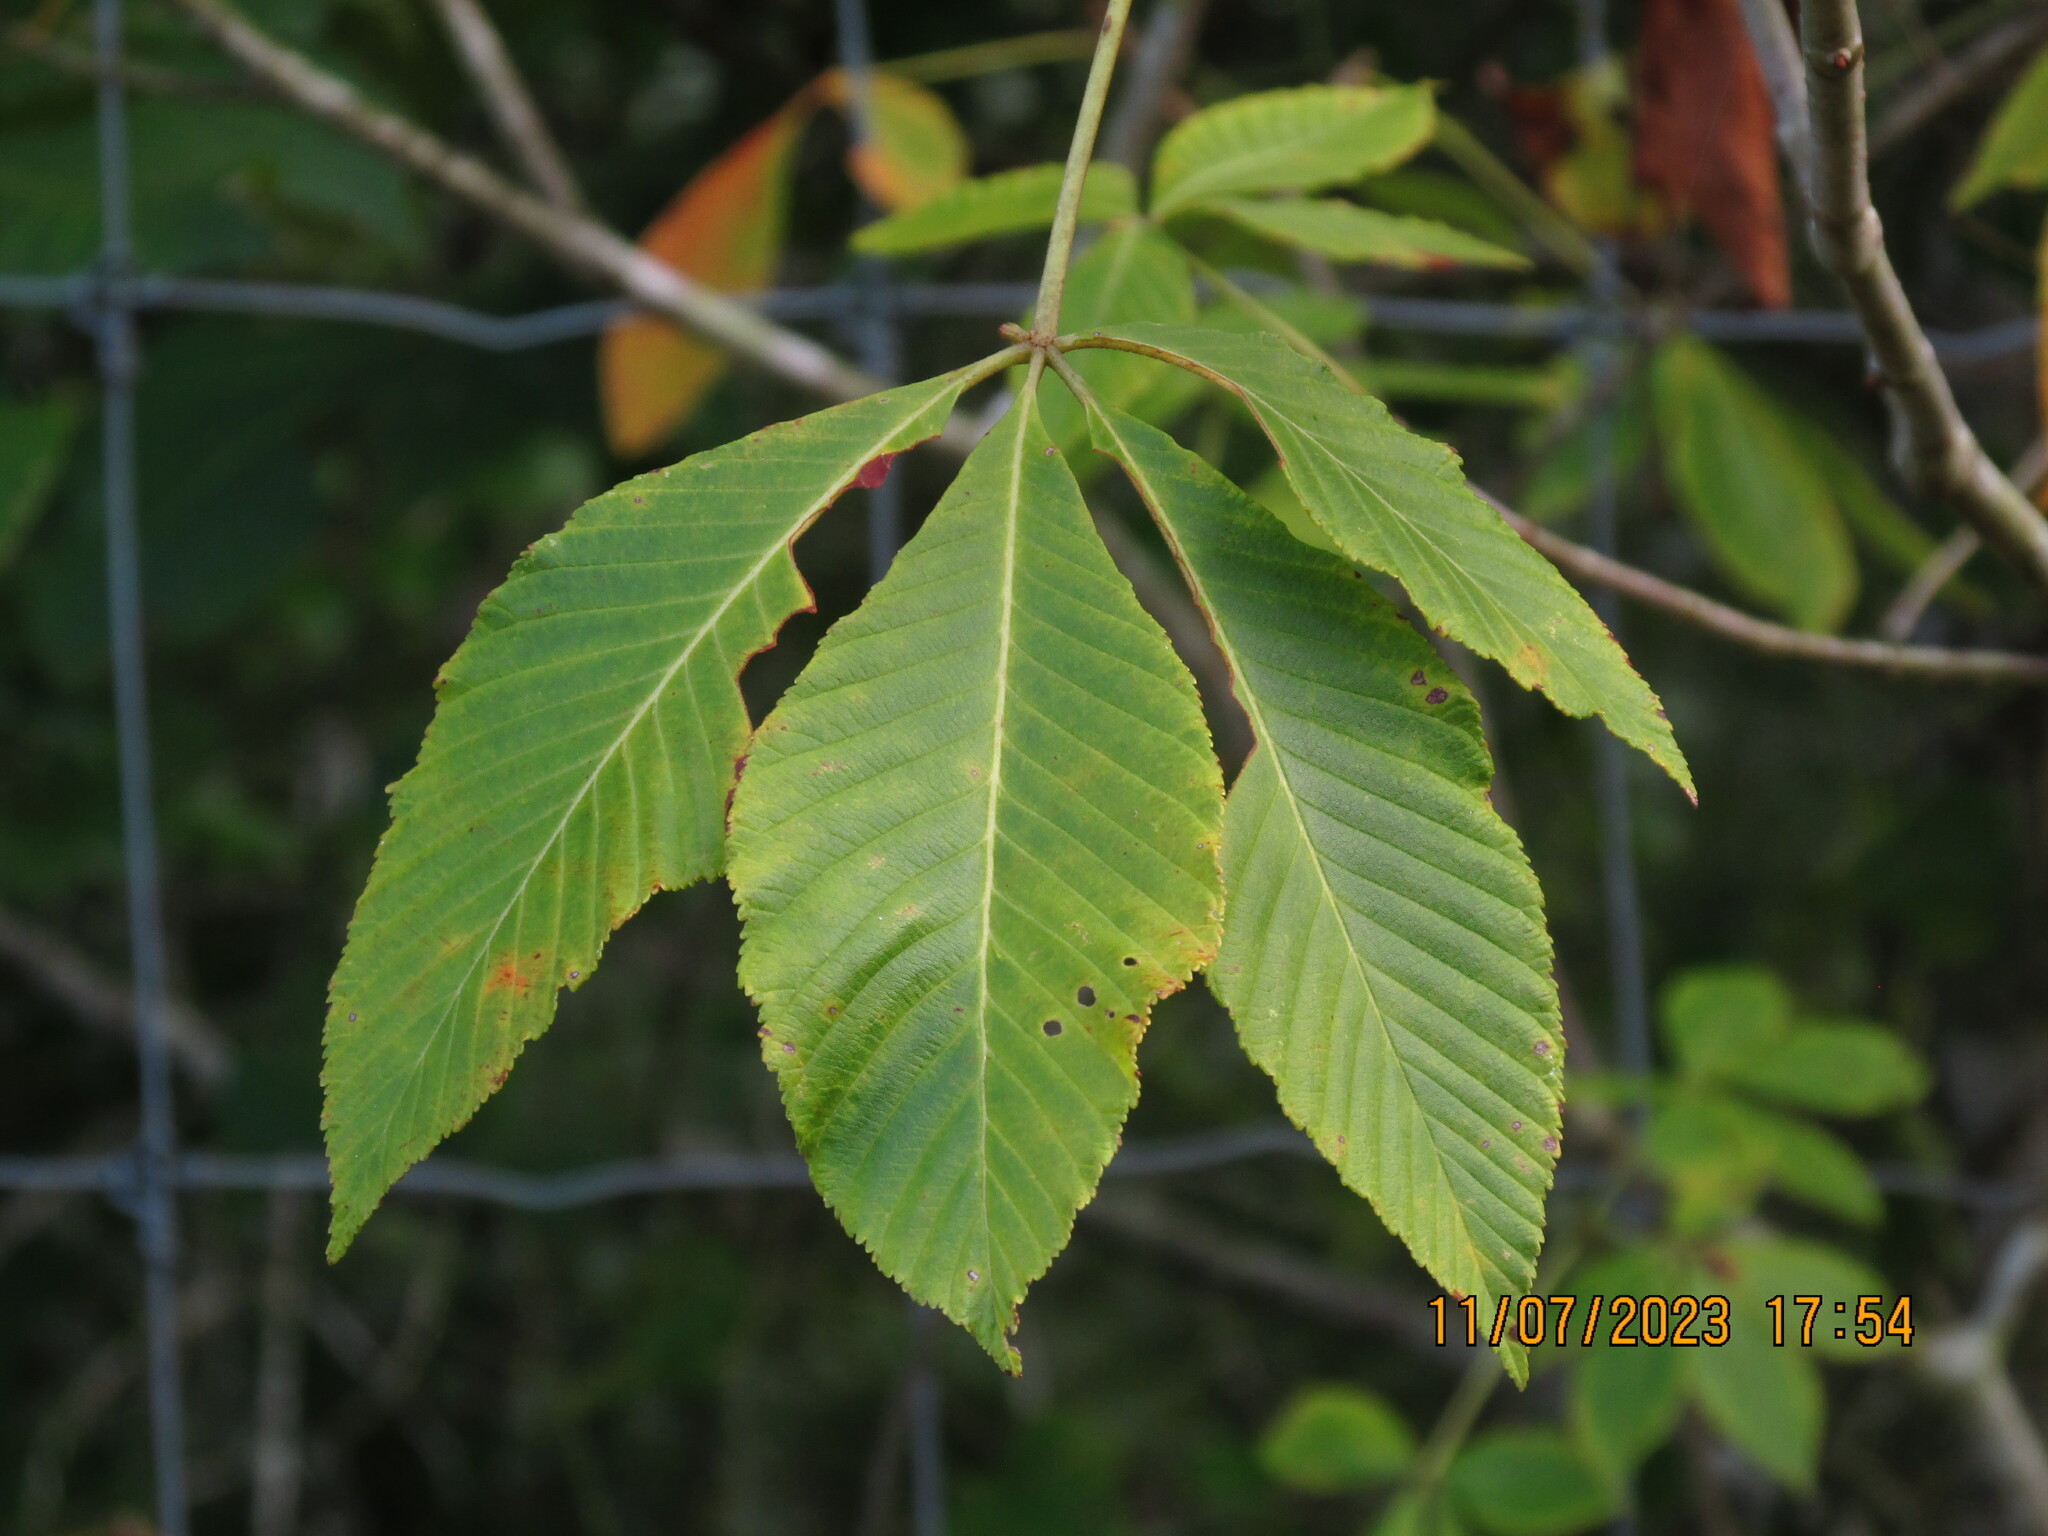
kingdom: Plantae
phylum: Tracheophyta
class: Magnoliopsida
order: Sapindales
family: Sapindaceae
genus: Aesculus
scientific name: Aesculus pavia
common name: Red buckeye
